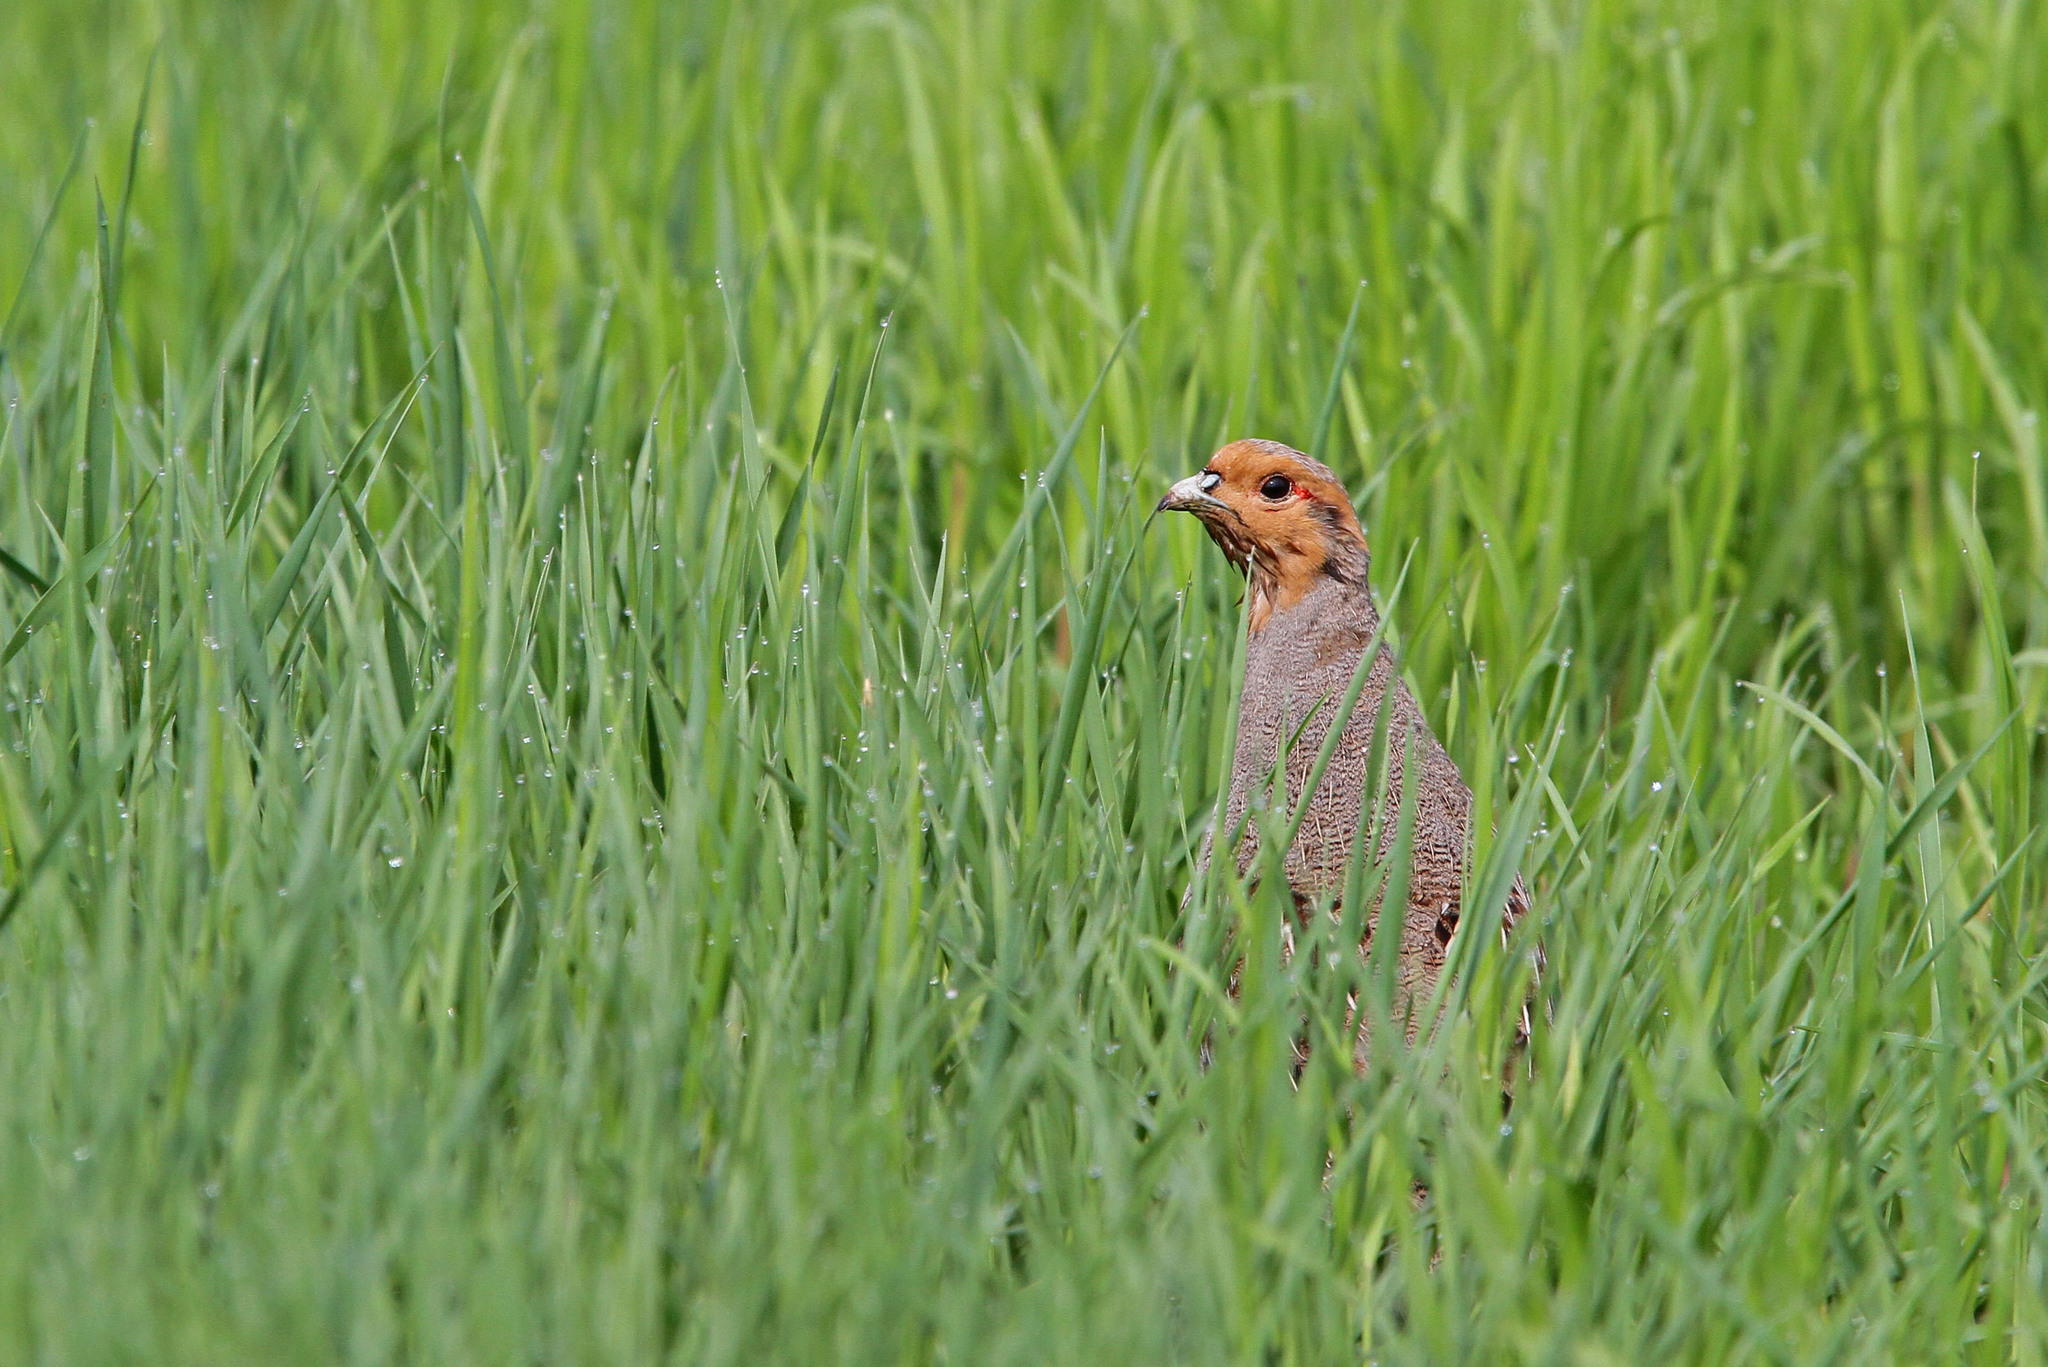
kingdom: Animalia
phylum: Chordata
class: Aves
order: Galliformes
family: Phasianidae
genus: Perdix
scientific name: Perdix perdix
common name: Grey partridge
